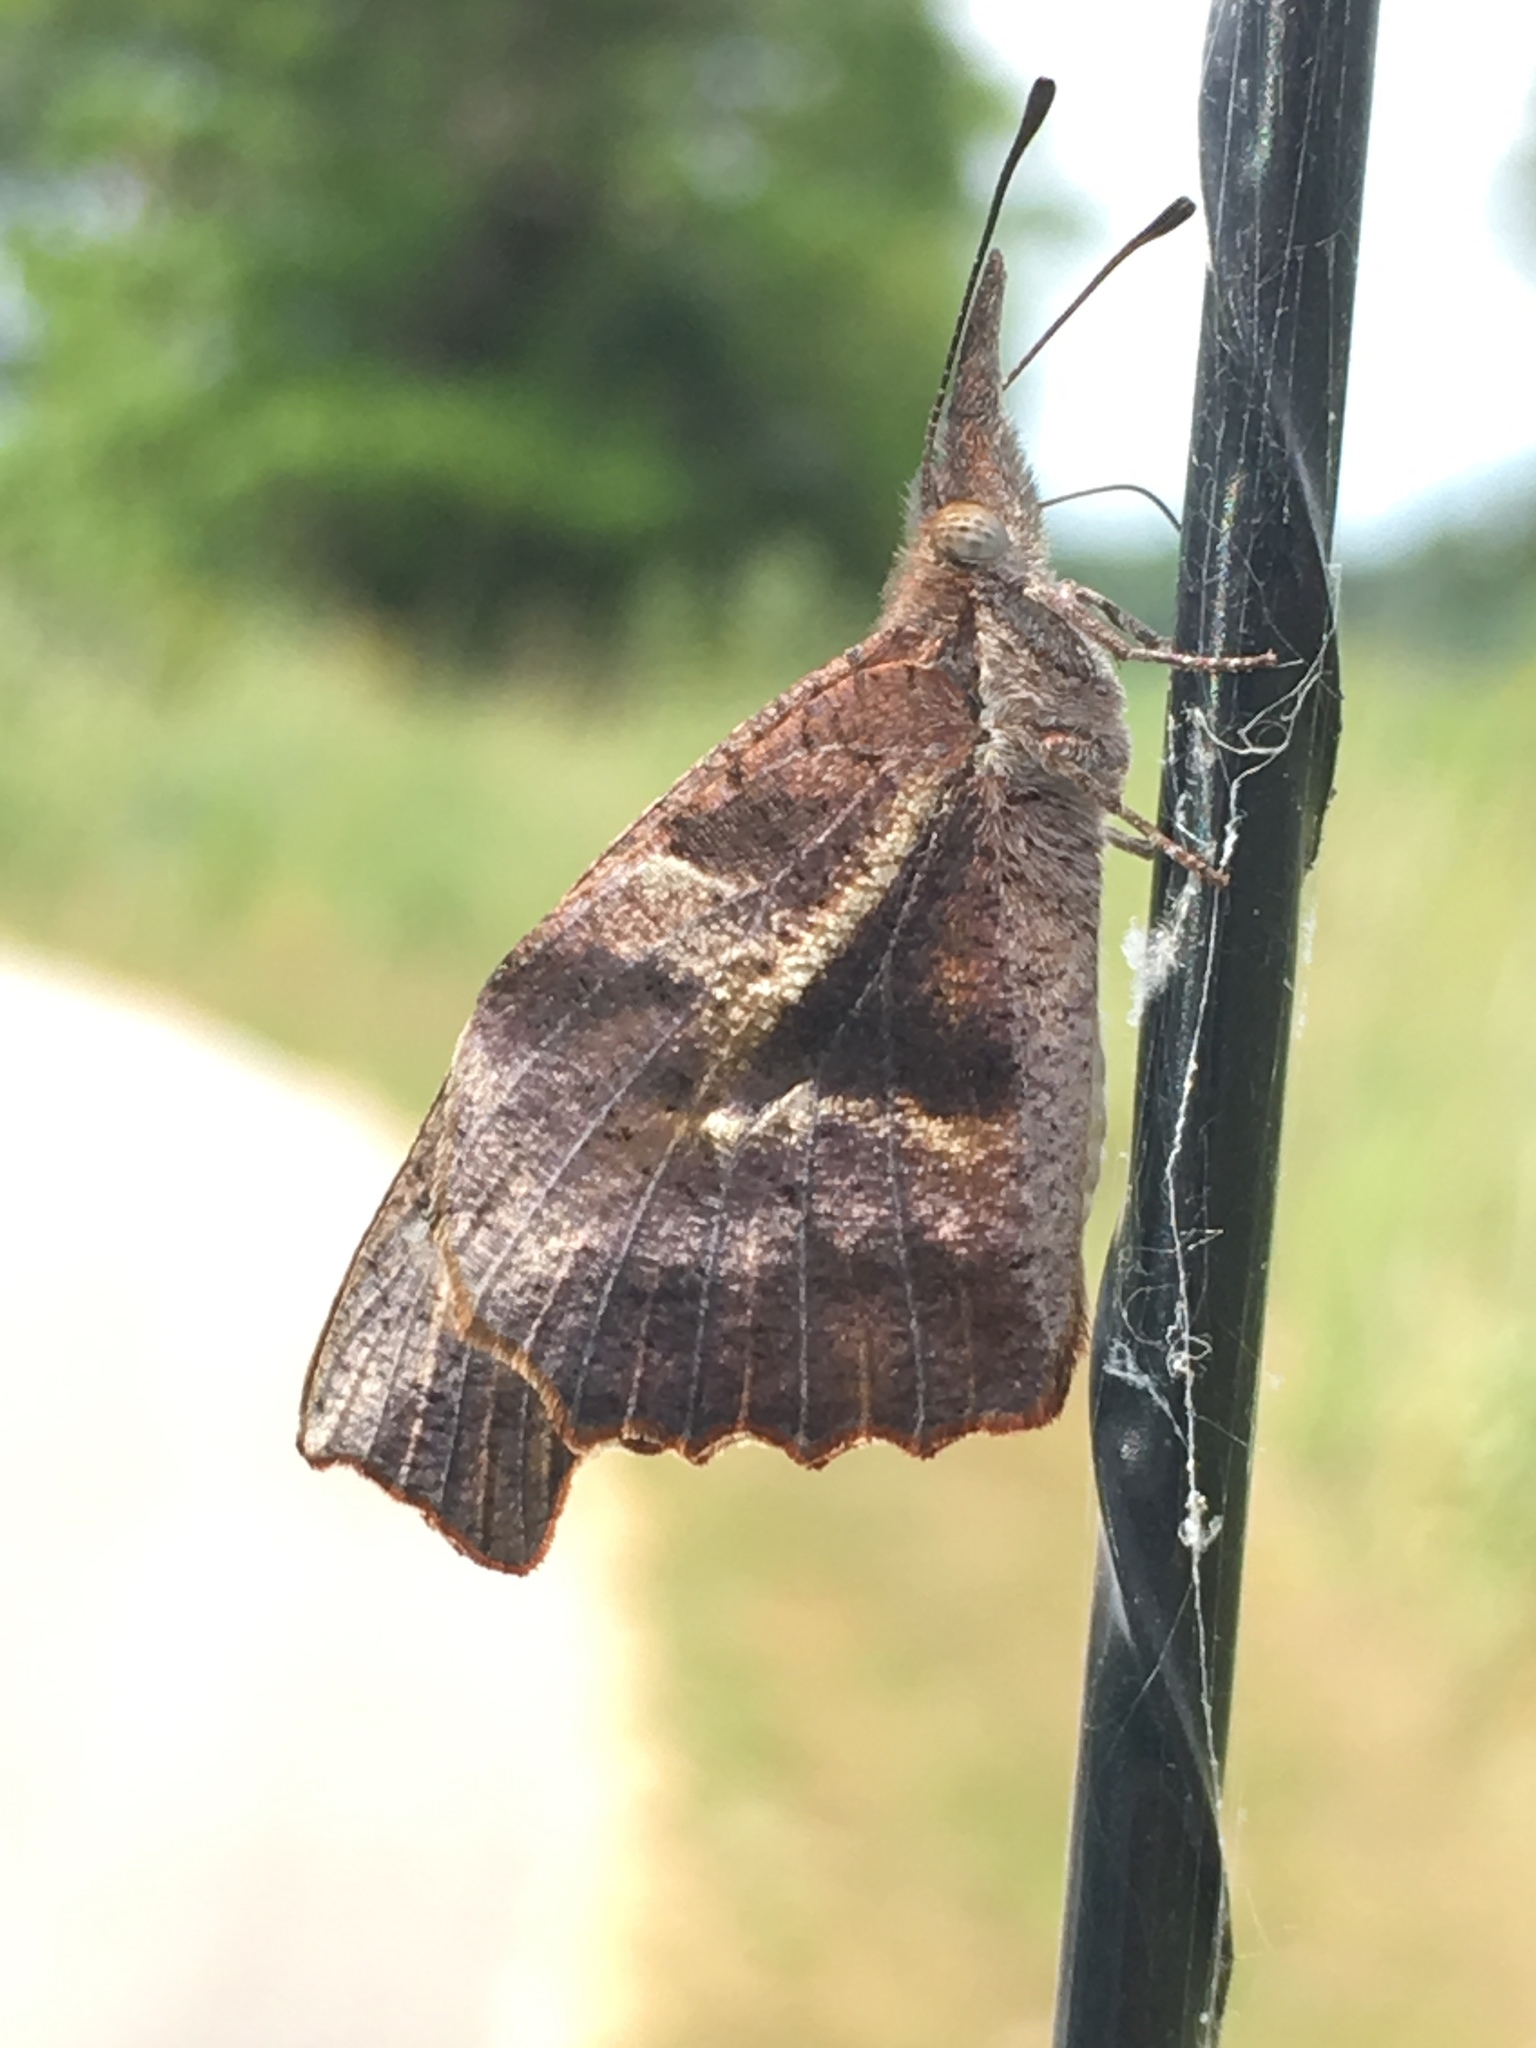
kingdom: Animalia
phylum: Arthropoda
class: Insecta
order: Lepidoptera
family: Nymphalidae
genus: Libytheana
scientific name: Libytheana carinenta
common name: American snout
